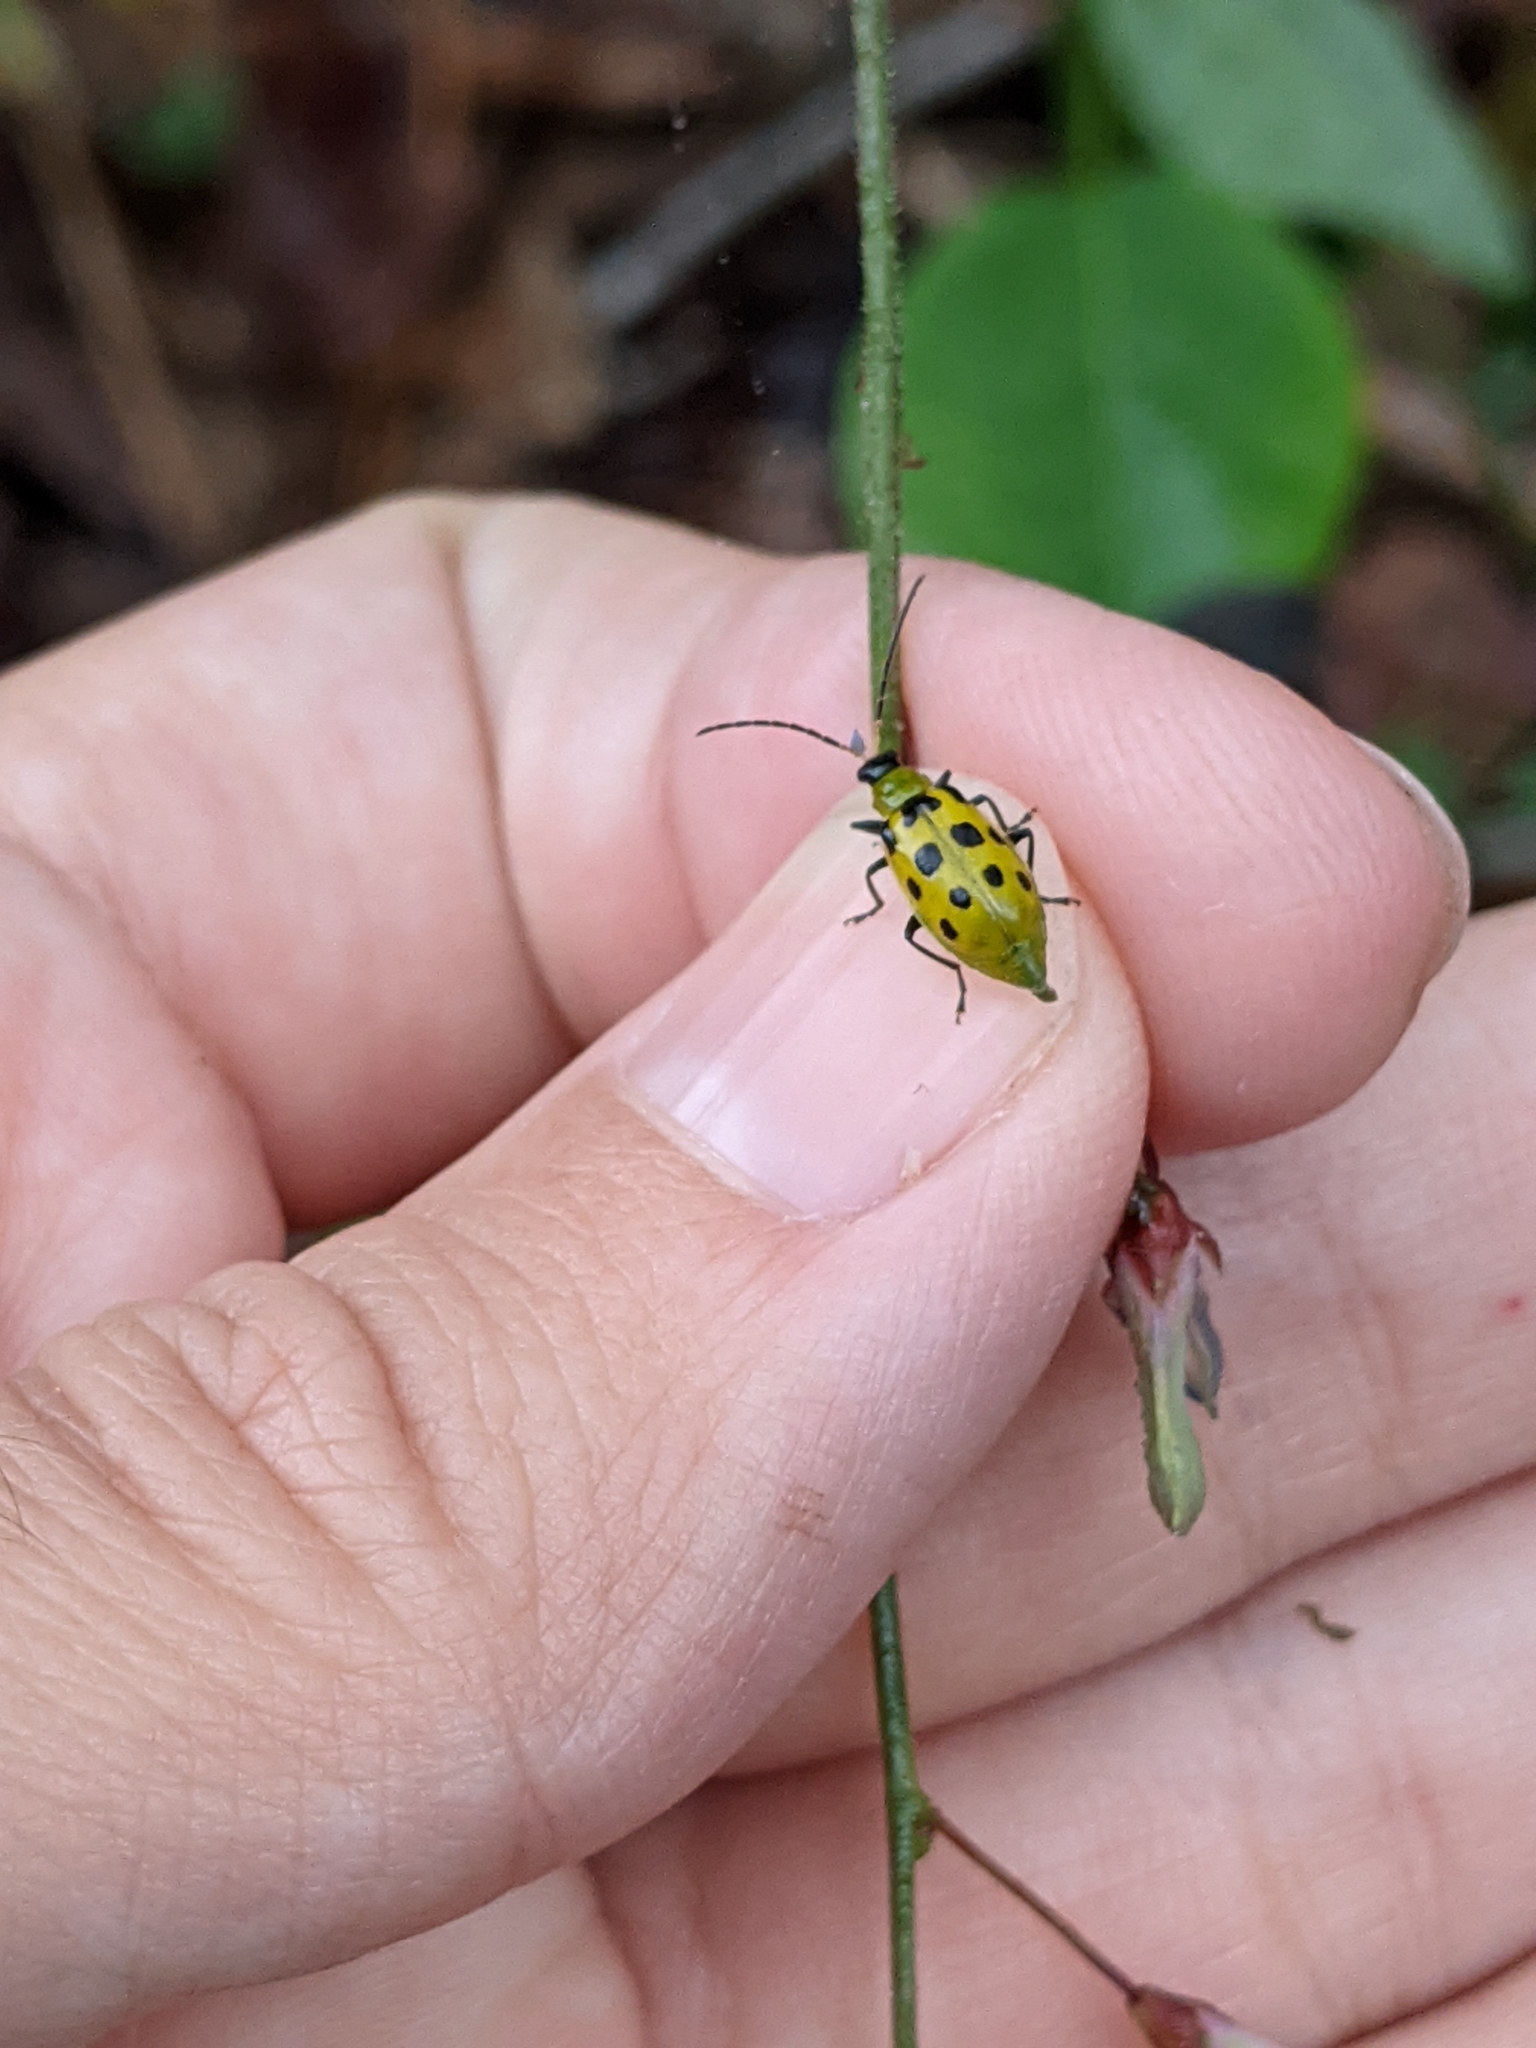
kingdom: Animalia
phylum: Arthropoda
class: Insecta
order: Coleoptera
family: Chrysomelidae
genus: Diabrotica
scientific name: Diabrotica undecimpunctata
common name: Spotted cucumber beetle
